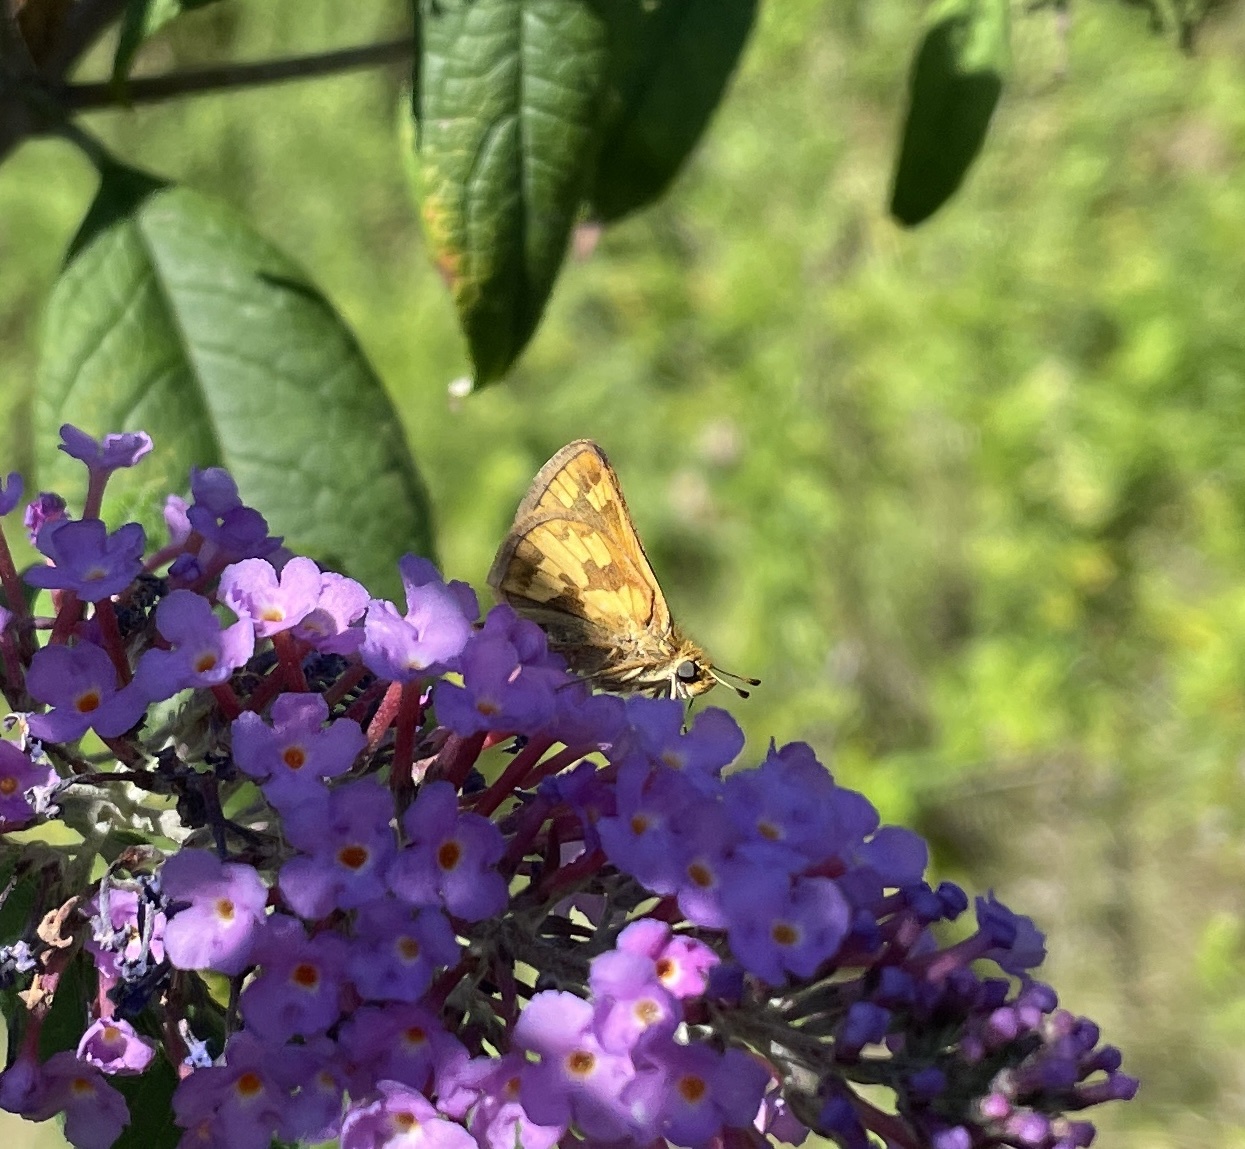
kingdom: Animalia
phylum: Arthropoda
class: Insecta
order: Lepidoptera
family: Hesperiidae
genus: Polites
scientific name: Polites coras
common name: Peck's skipper
